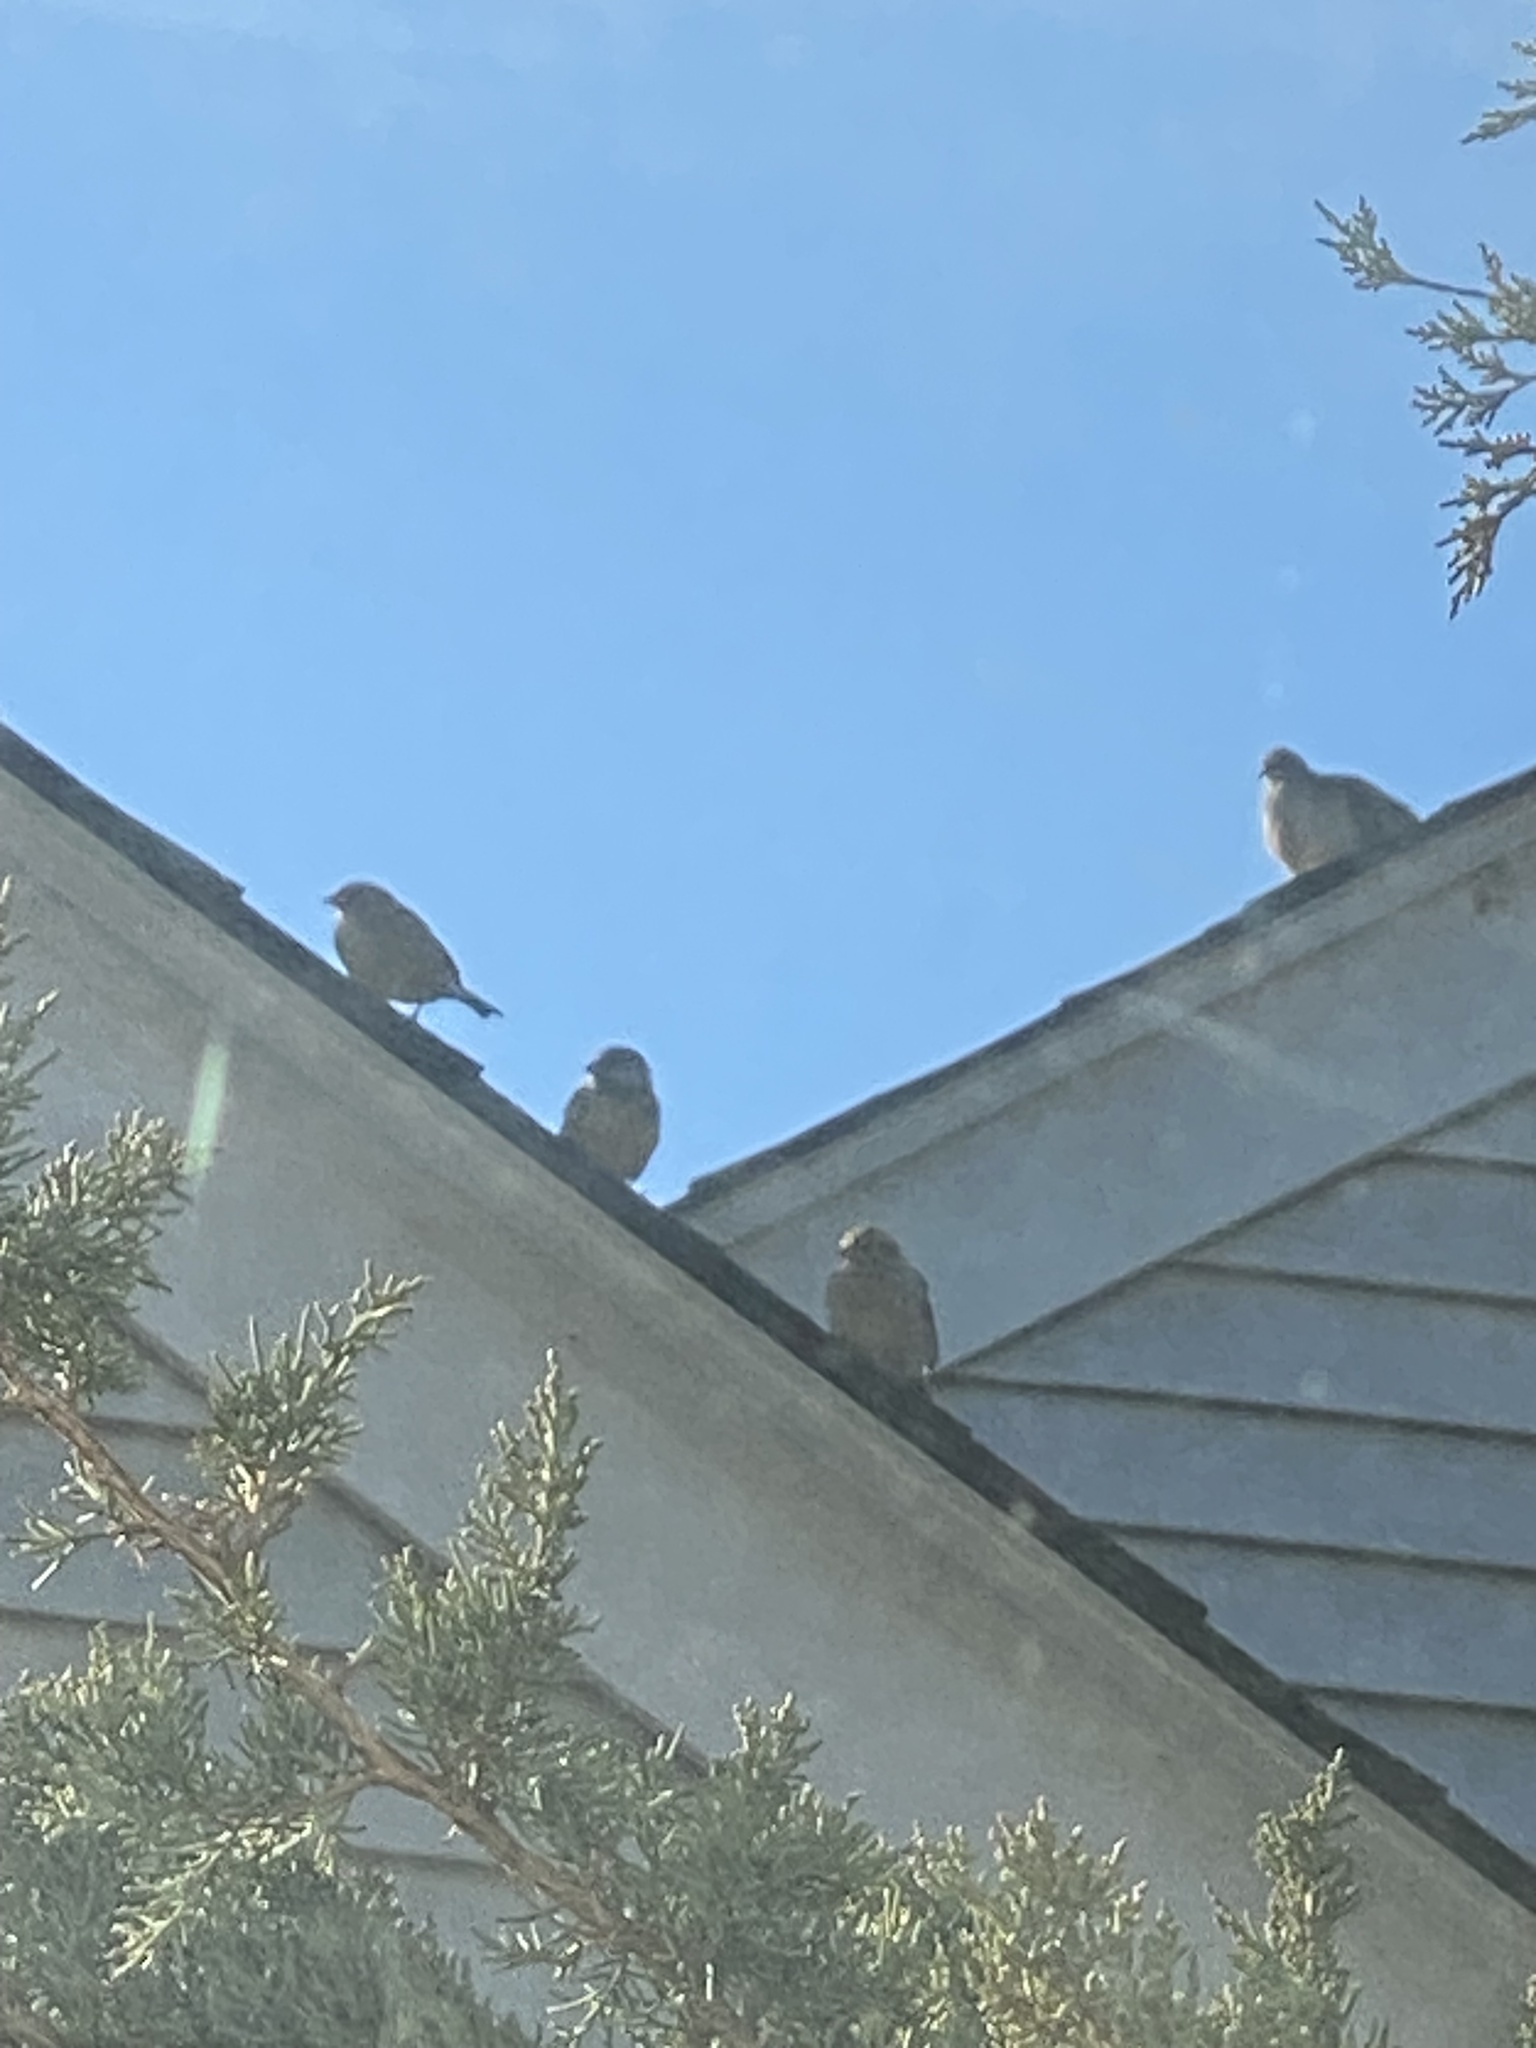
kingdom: Animalia
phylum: Chordata
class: Aves
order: Passeriformes
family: Passeridae
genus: Passer
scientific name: Passer domesticus
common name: House sparrow
